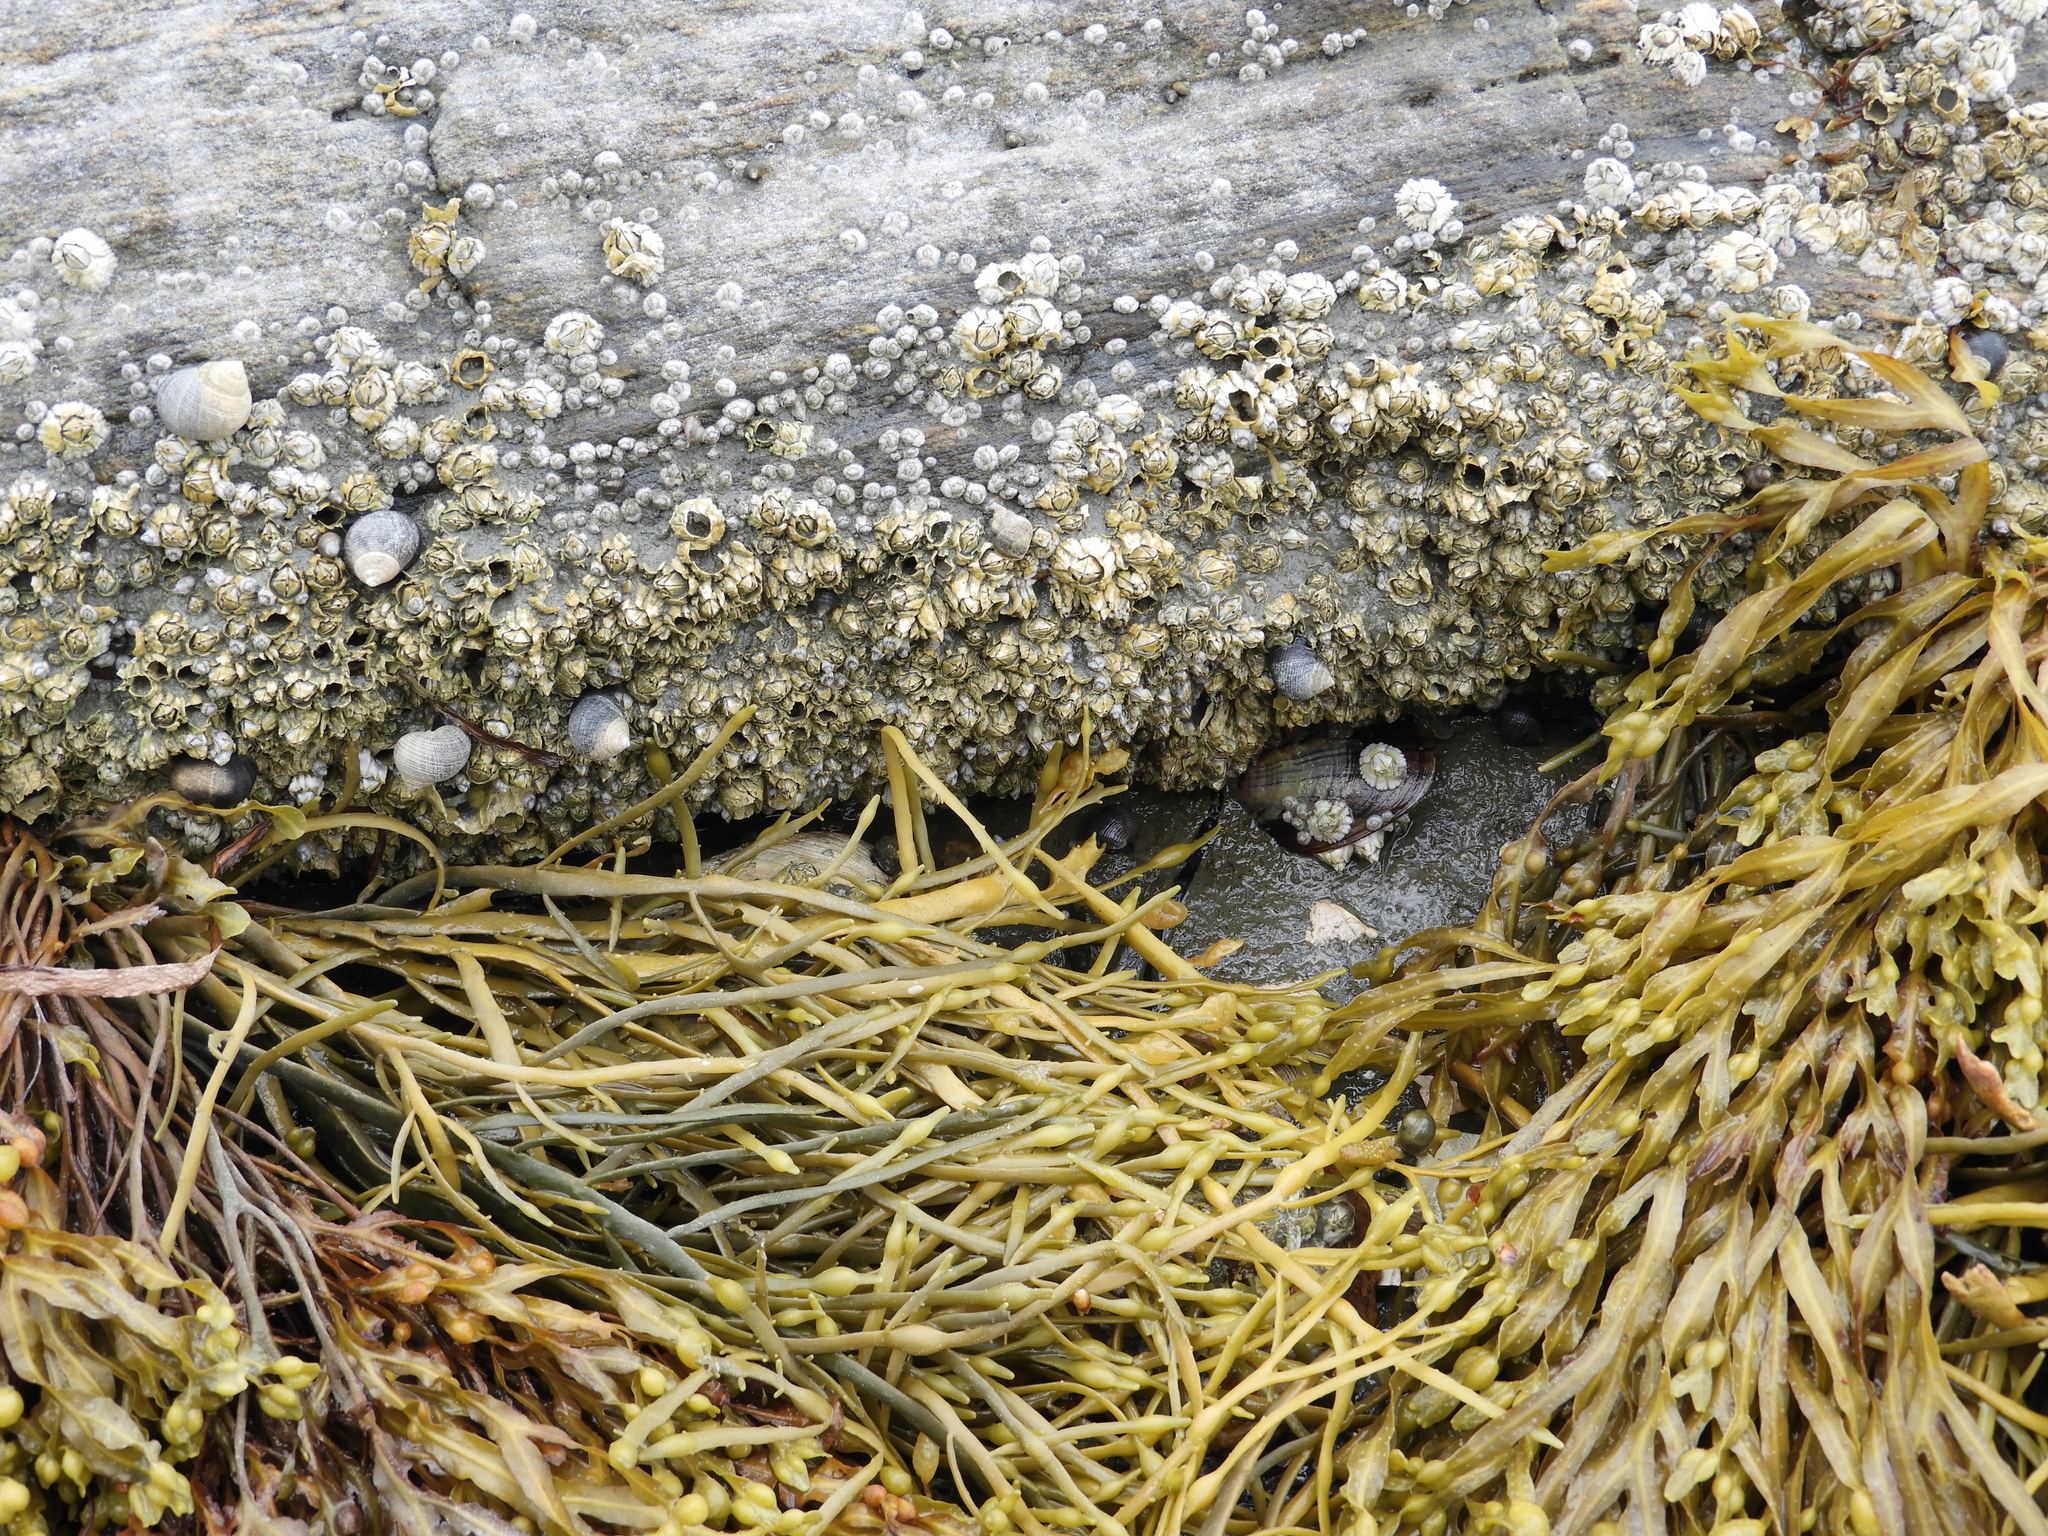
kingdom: Chromista
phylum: Ochrophyta
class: Phaeophyceae
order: Fucales
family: Fucaceae
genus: Ascophyllum
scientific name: Ascophyllum nodosum
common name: Knotted wrack
